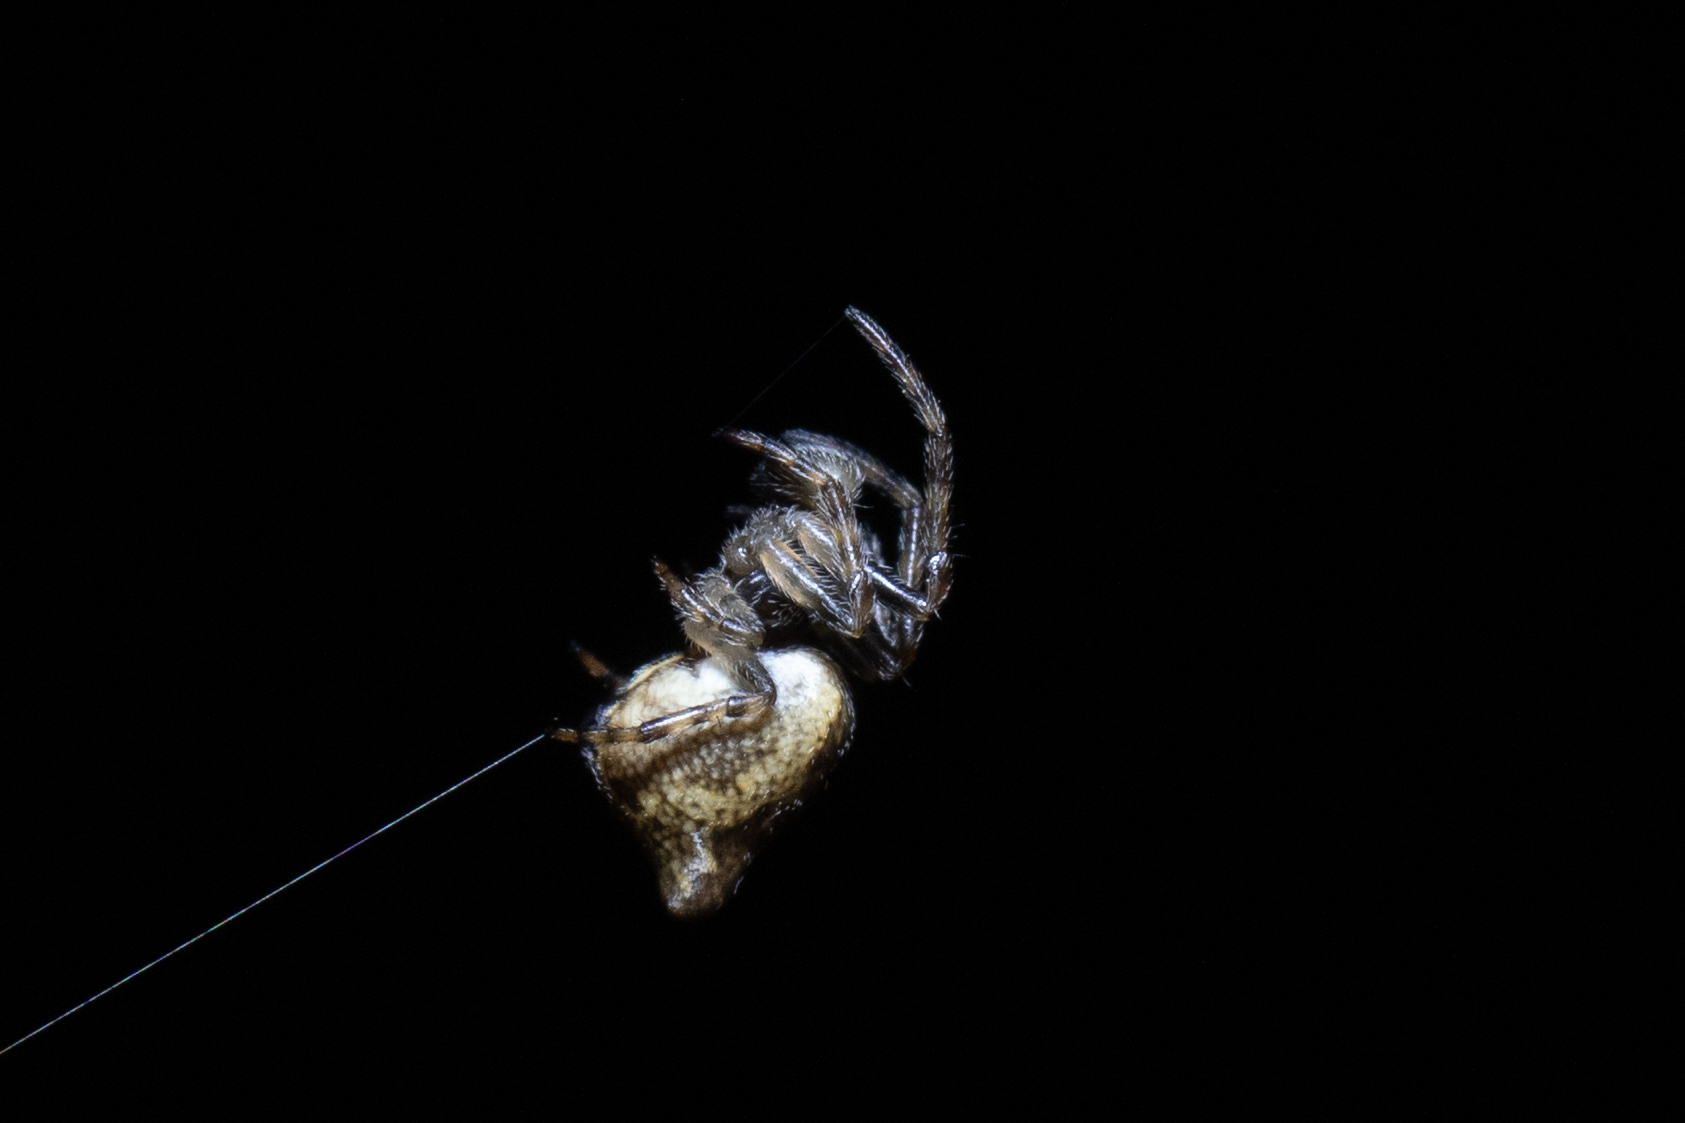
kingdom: Animalia
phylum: Arthropoda
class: Arachnida
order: Araneae
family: Araneidae
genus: Cyclosa
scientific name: Cyclosa conica
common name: Conical trashline orbweaver
